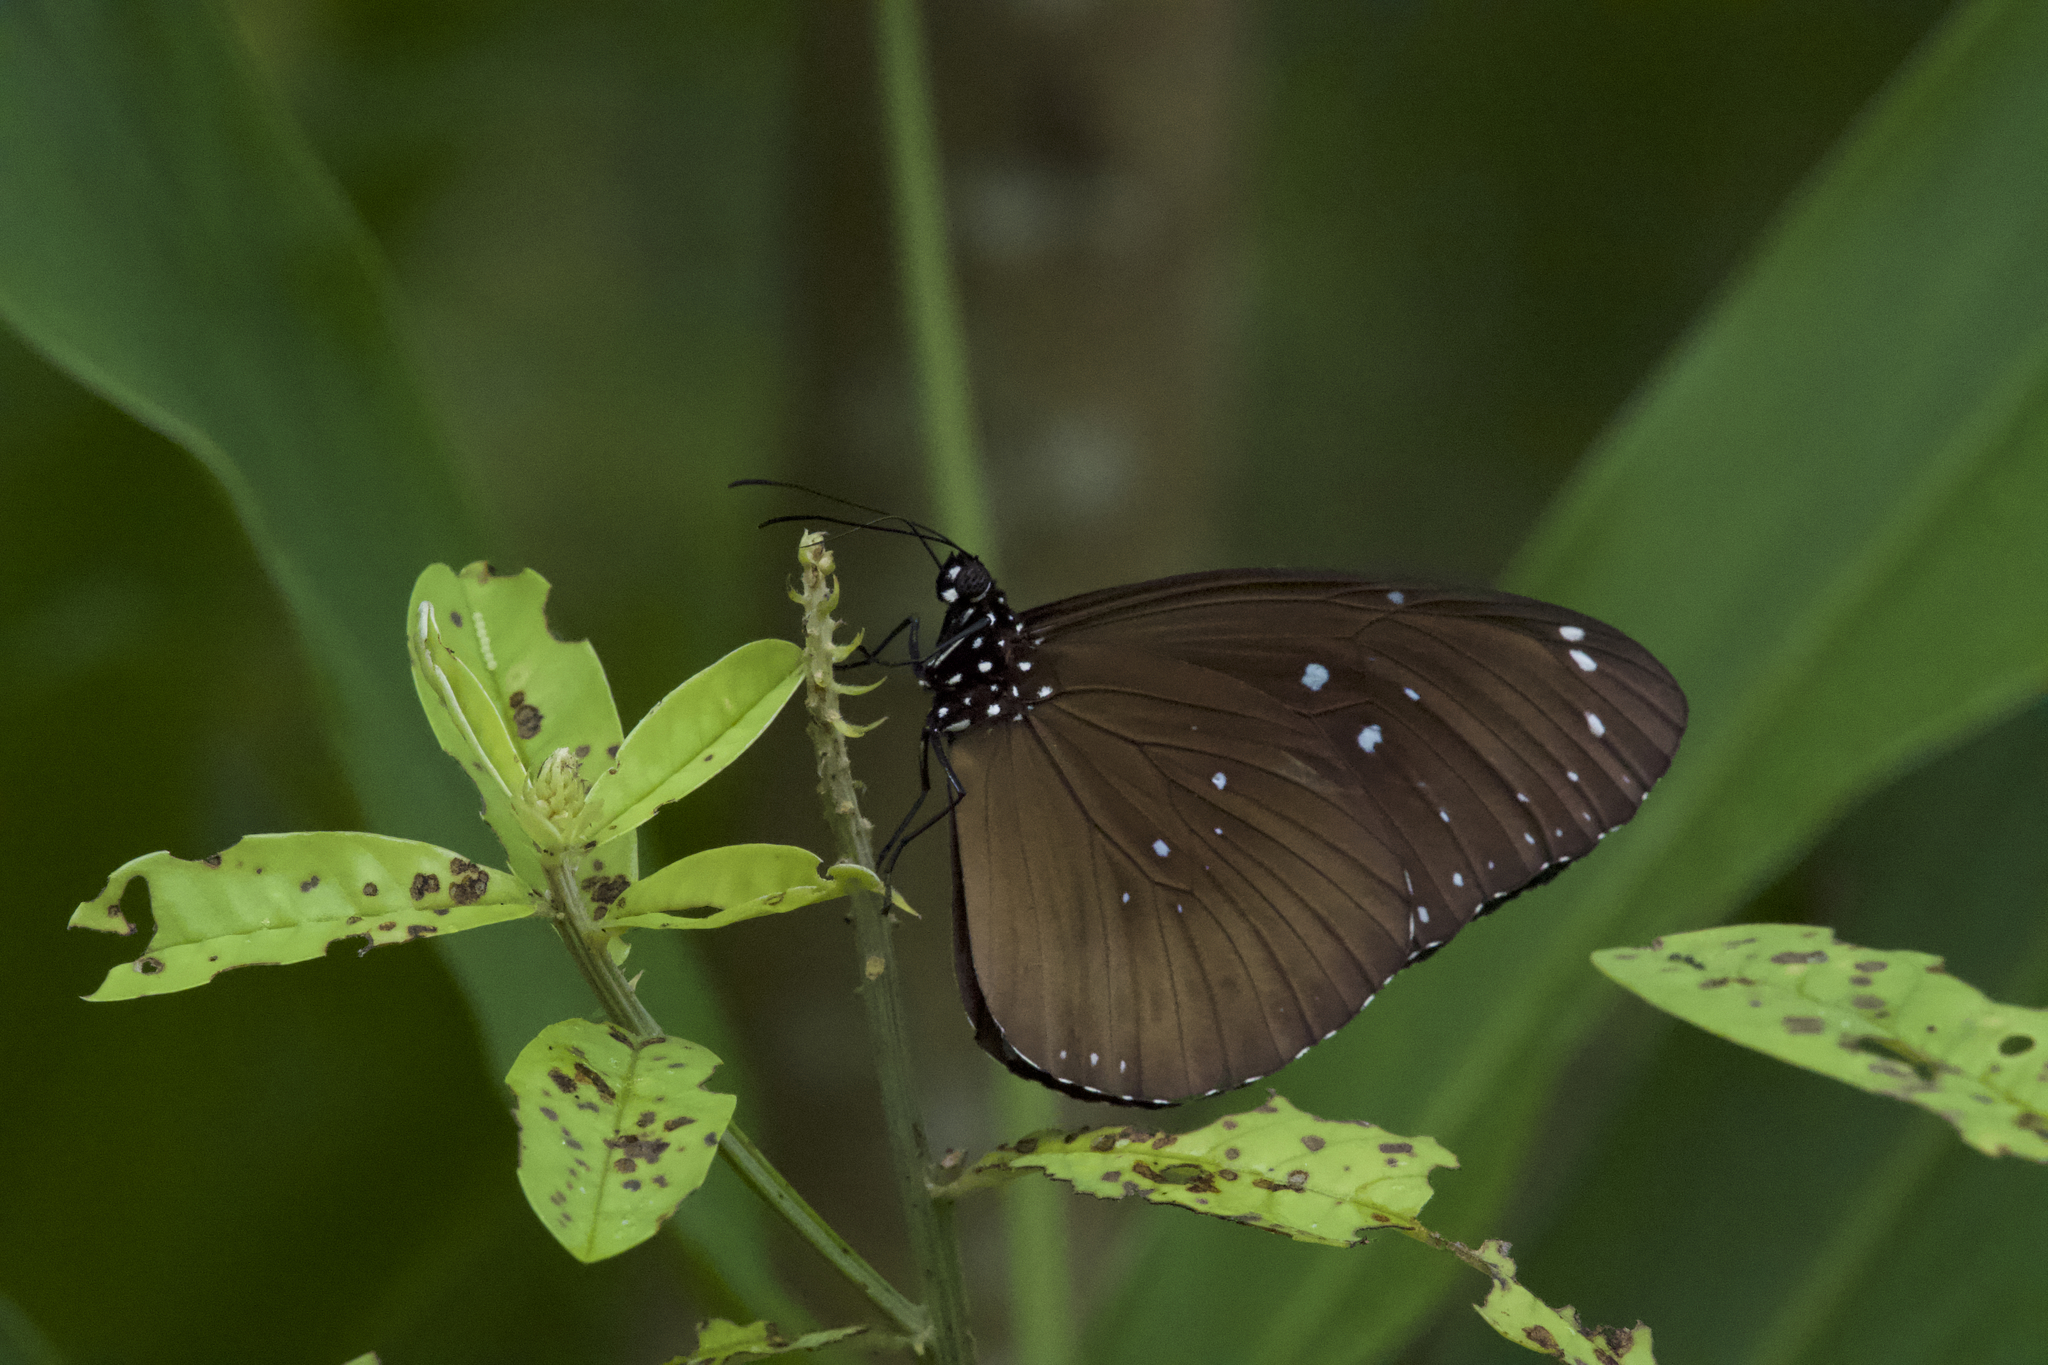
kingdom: Animalia
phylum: Arthropoda
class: Insecta
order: Lepidoptera
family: Nymphalidae
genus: Euploea
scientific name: Euploea core
